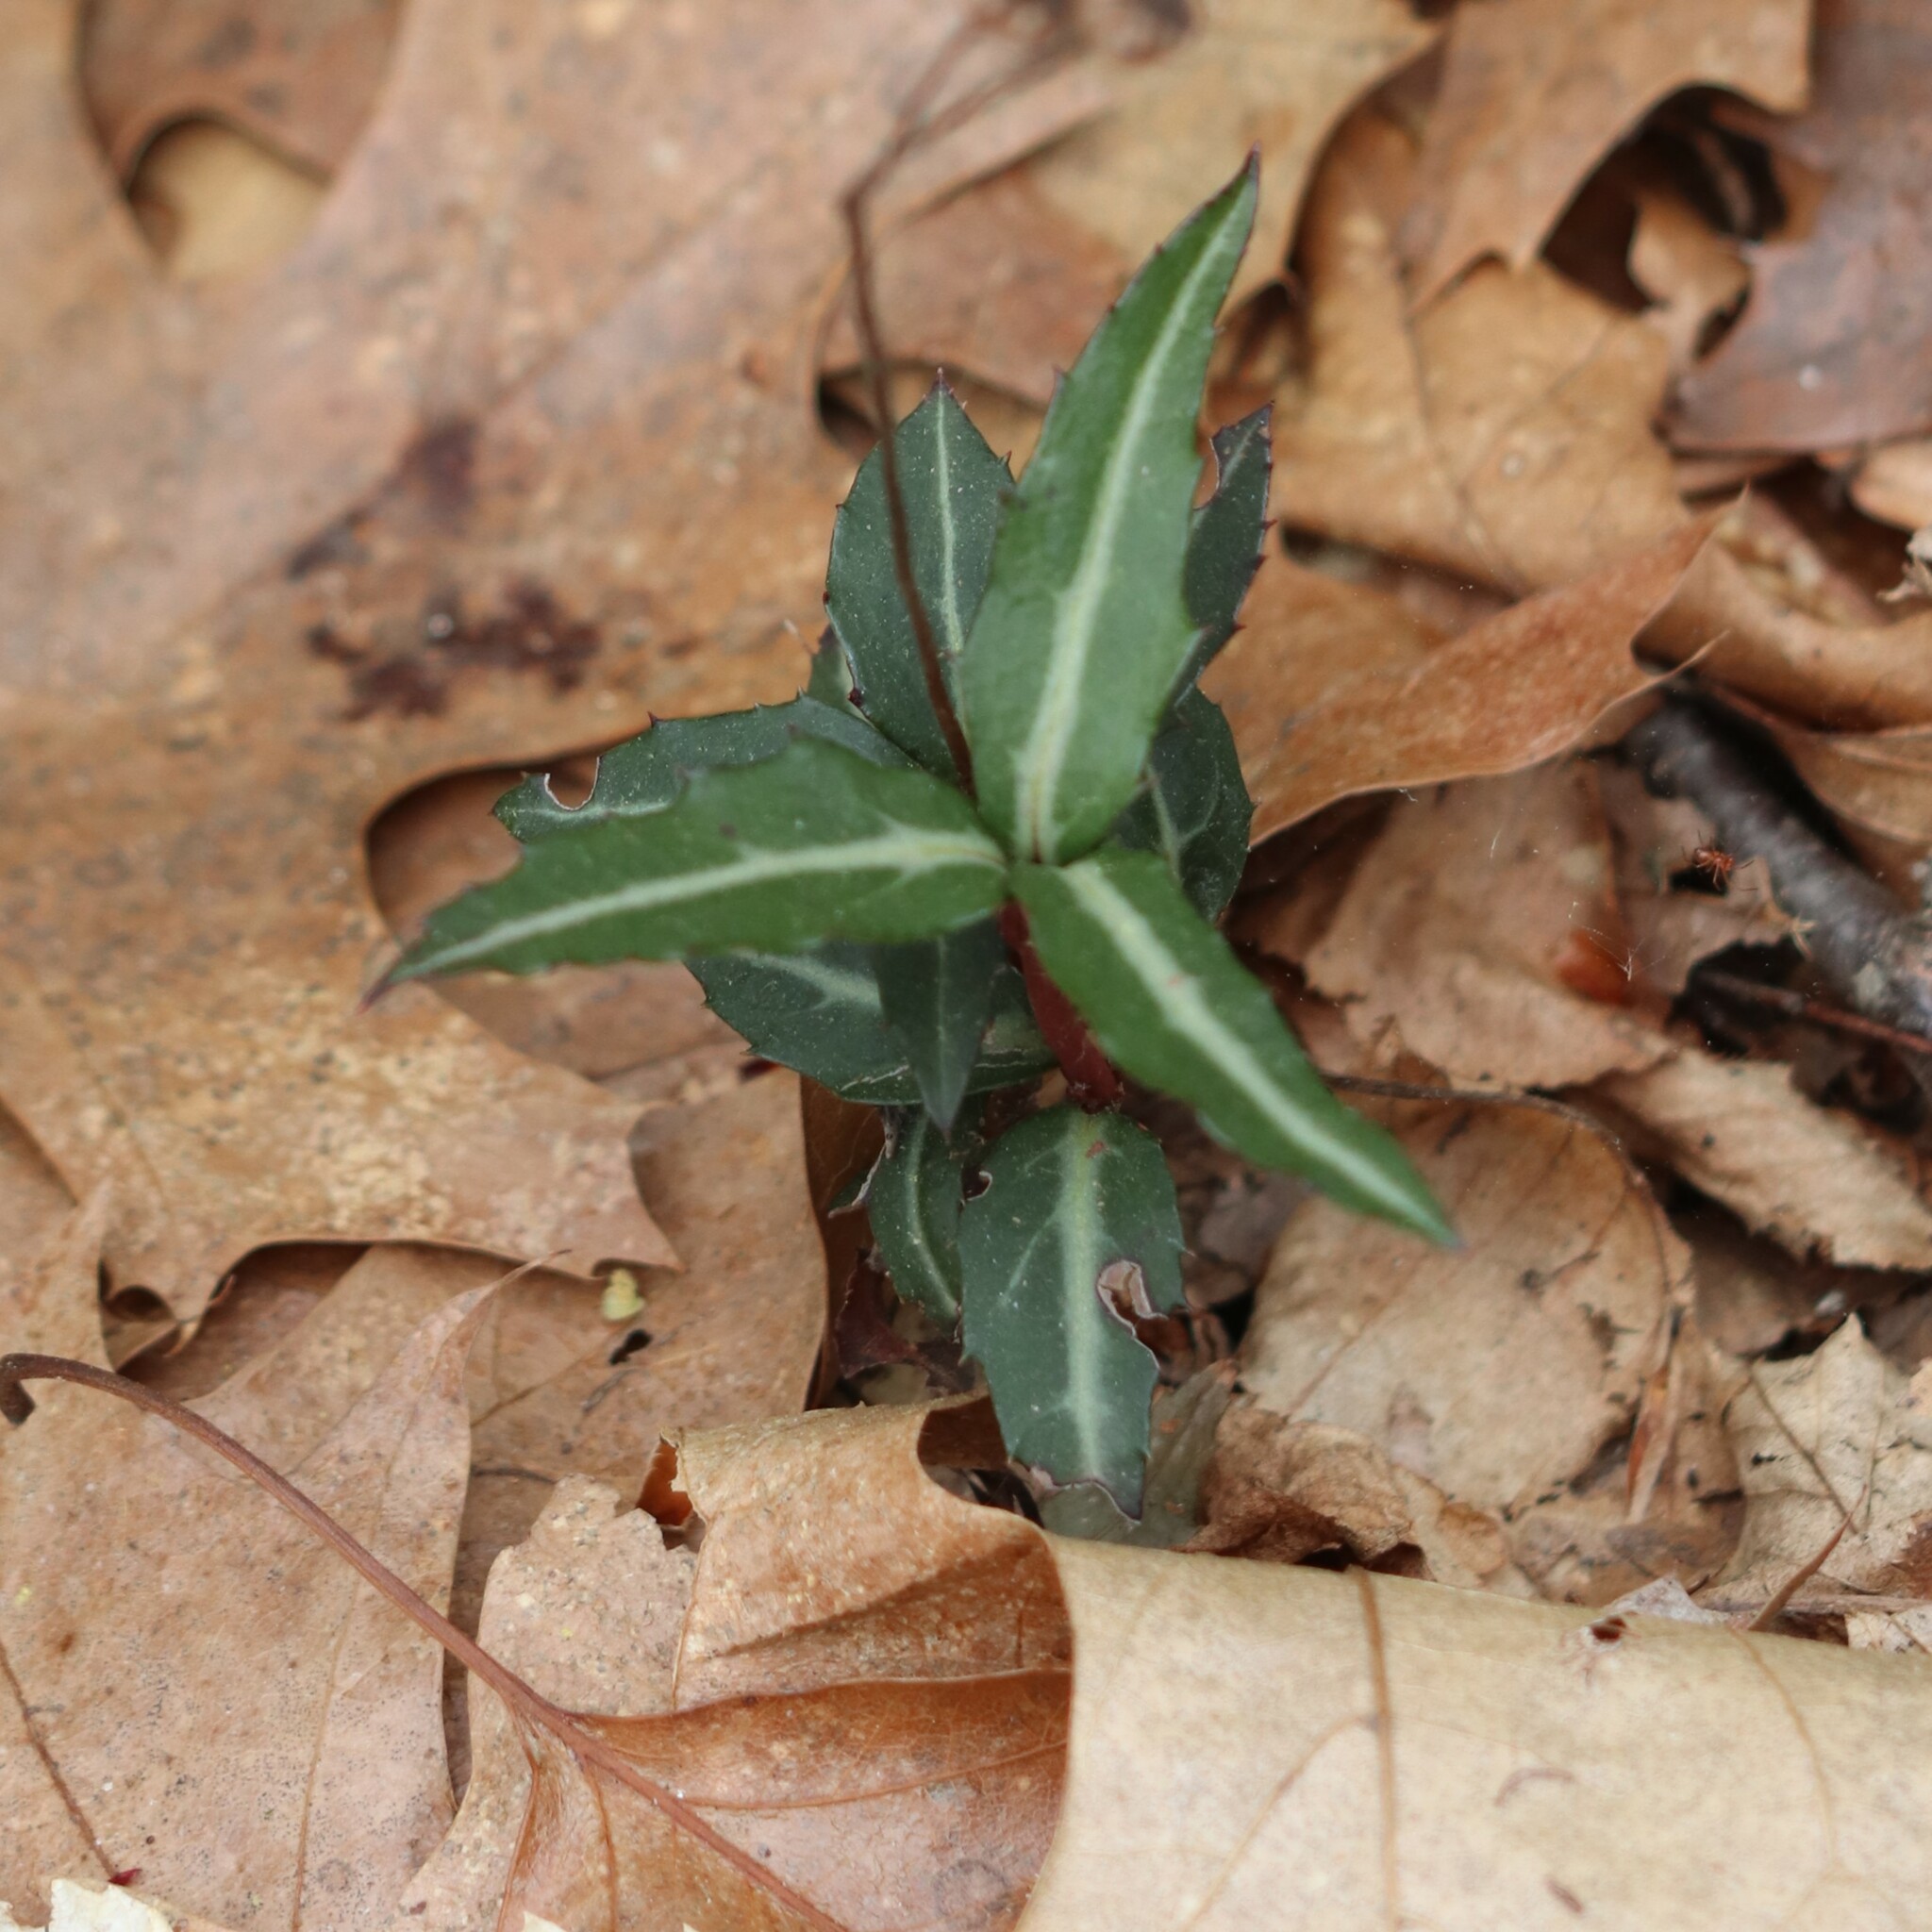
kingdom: Plantae
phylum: Tracheophyta
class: Magnoliopsida
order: Ericales
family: Ericaceae
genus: Chimaphila
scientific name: Chimaphila maculata
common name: Spotted pipsissewa
